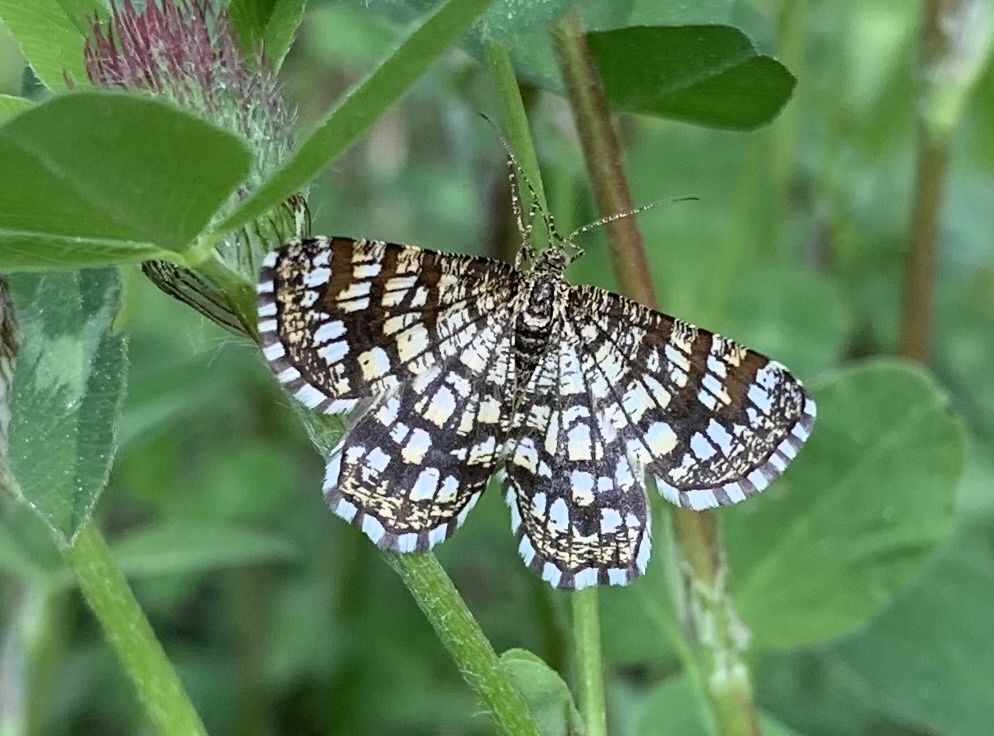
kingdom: Animalia
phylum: Arthropoda
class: Insecta
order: Lepidoptera
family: Geometridae
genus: Chiasmia
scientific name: Chiasmia clathrata
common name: Latticed heath
